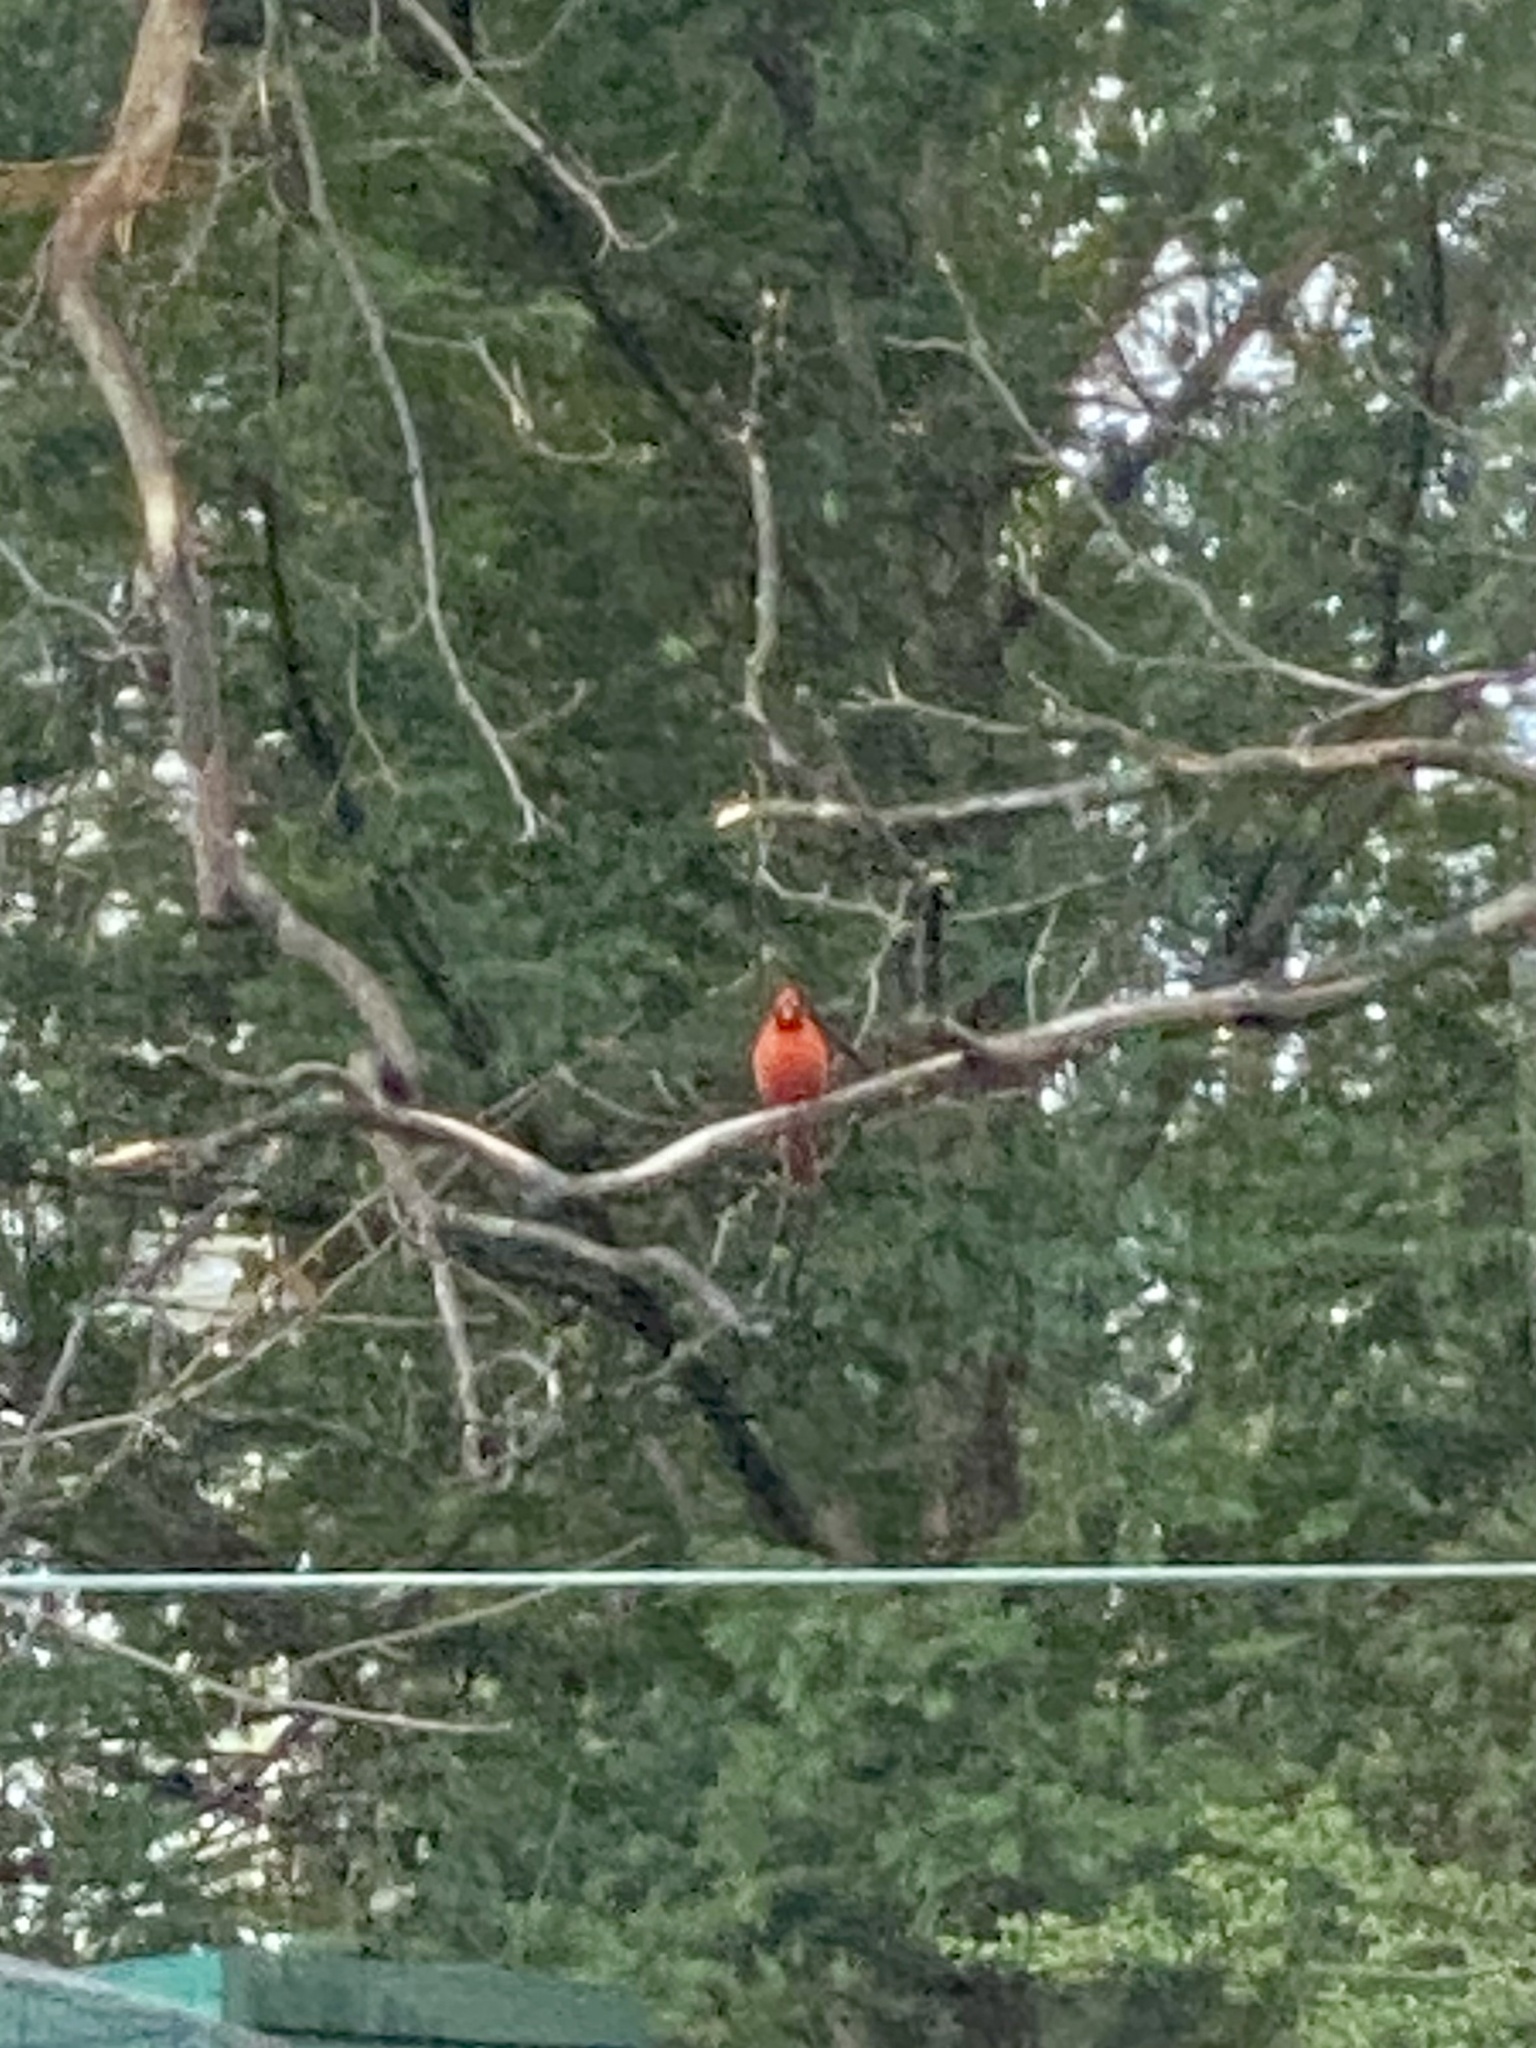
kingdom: Animalia
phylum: Chordata
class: Aves
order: Passeriformes
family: Cardinalidae
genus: Cardinalis
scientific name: Cardinalis cardinalis
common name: Northern cardinal
